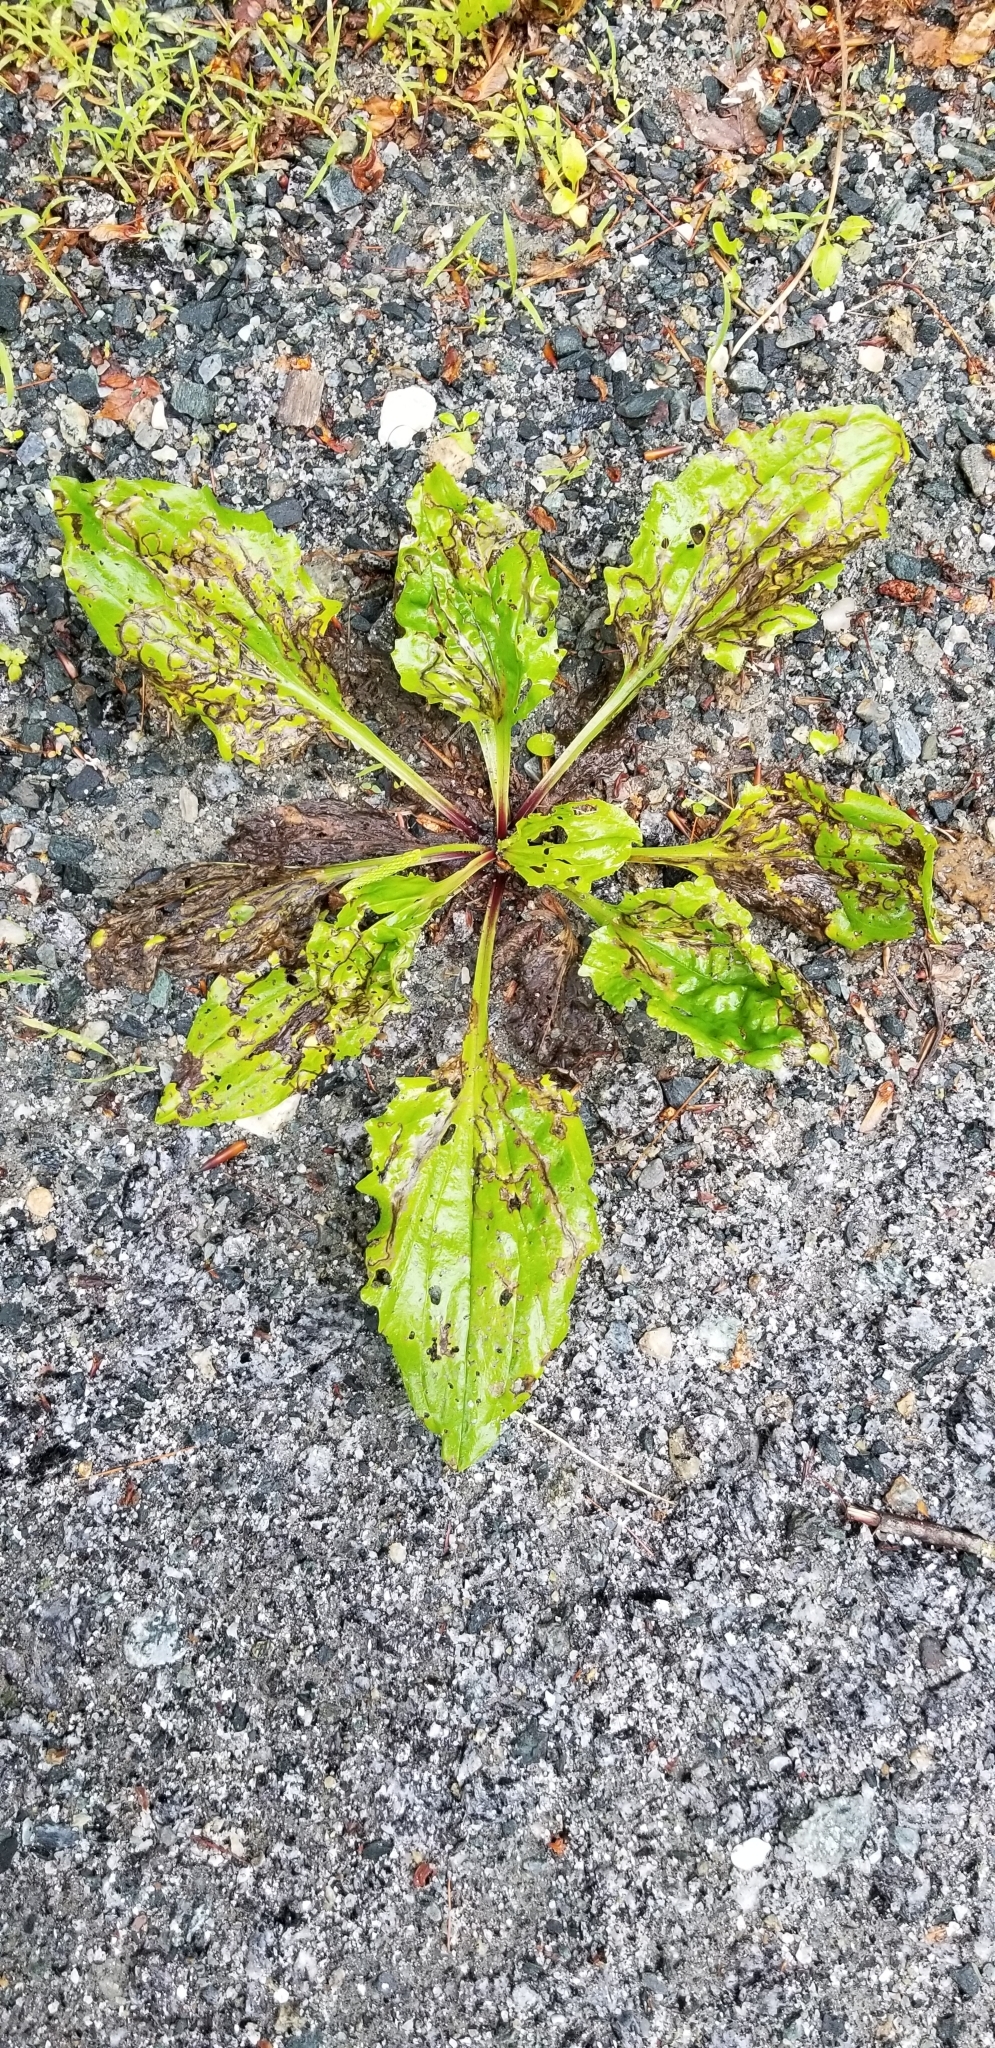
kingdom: Plantae
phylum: Tracheophyta
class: Magnoliopsida
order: Lamiales
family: Plantaginaceae
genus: Plantago
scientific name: Plantago rugelii
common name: American plantain
